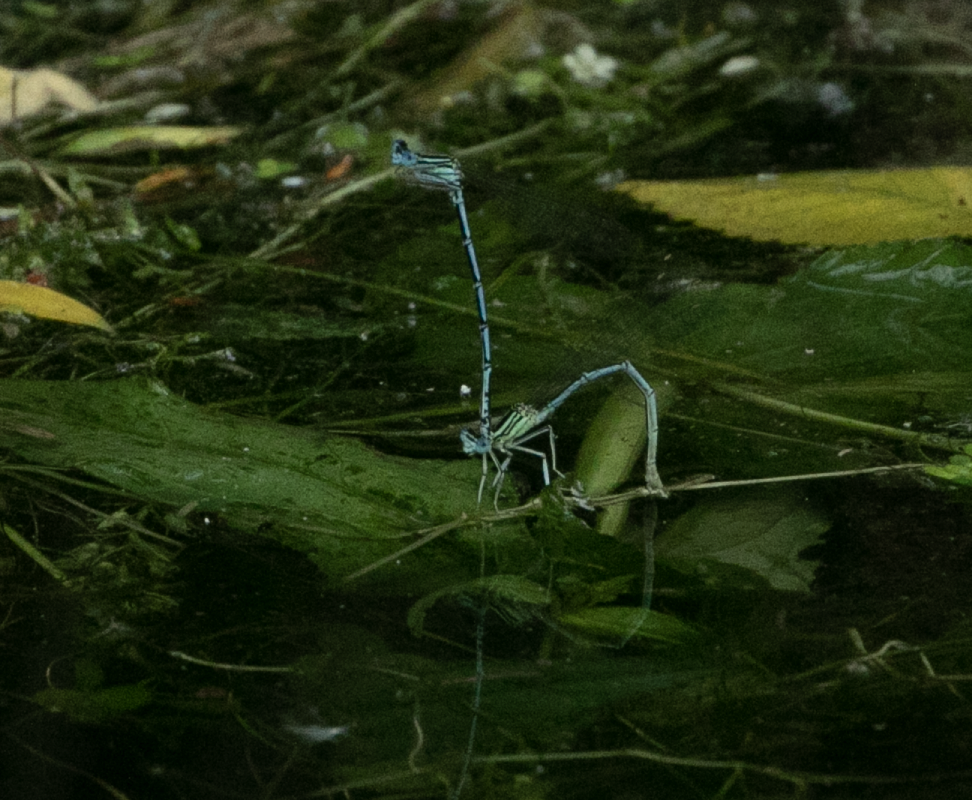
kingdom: Animalia
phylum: Arthropoda
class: Insecta
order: Odonata
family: Platycnemididae
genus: Platycnemis
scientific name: Platycnemis pennipes
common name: White-legged damselfly
